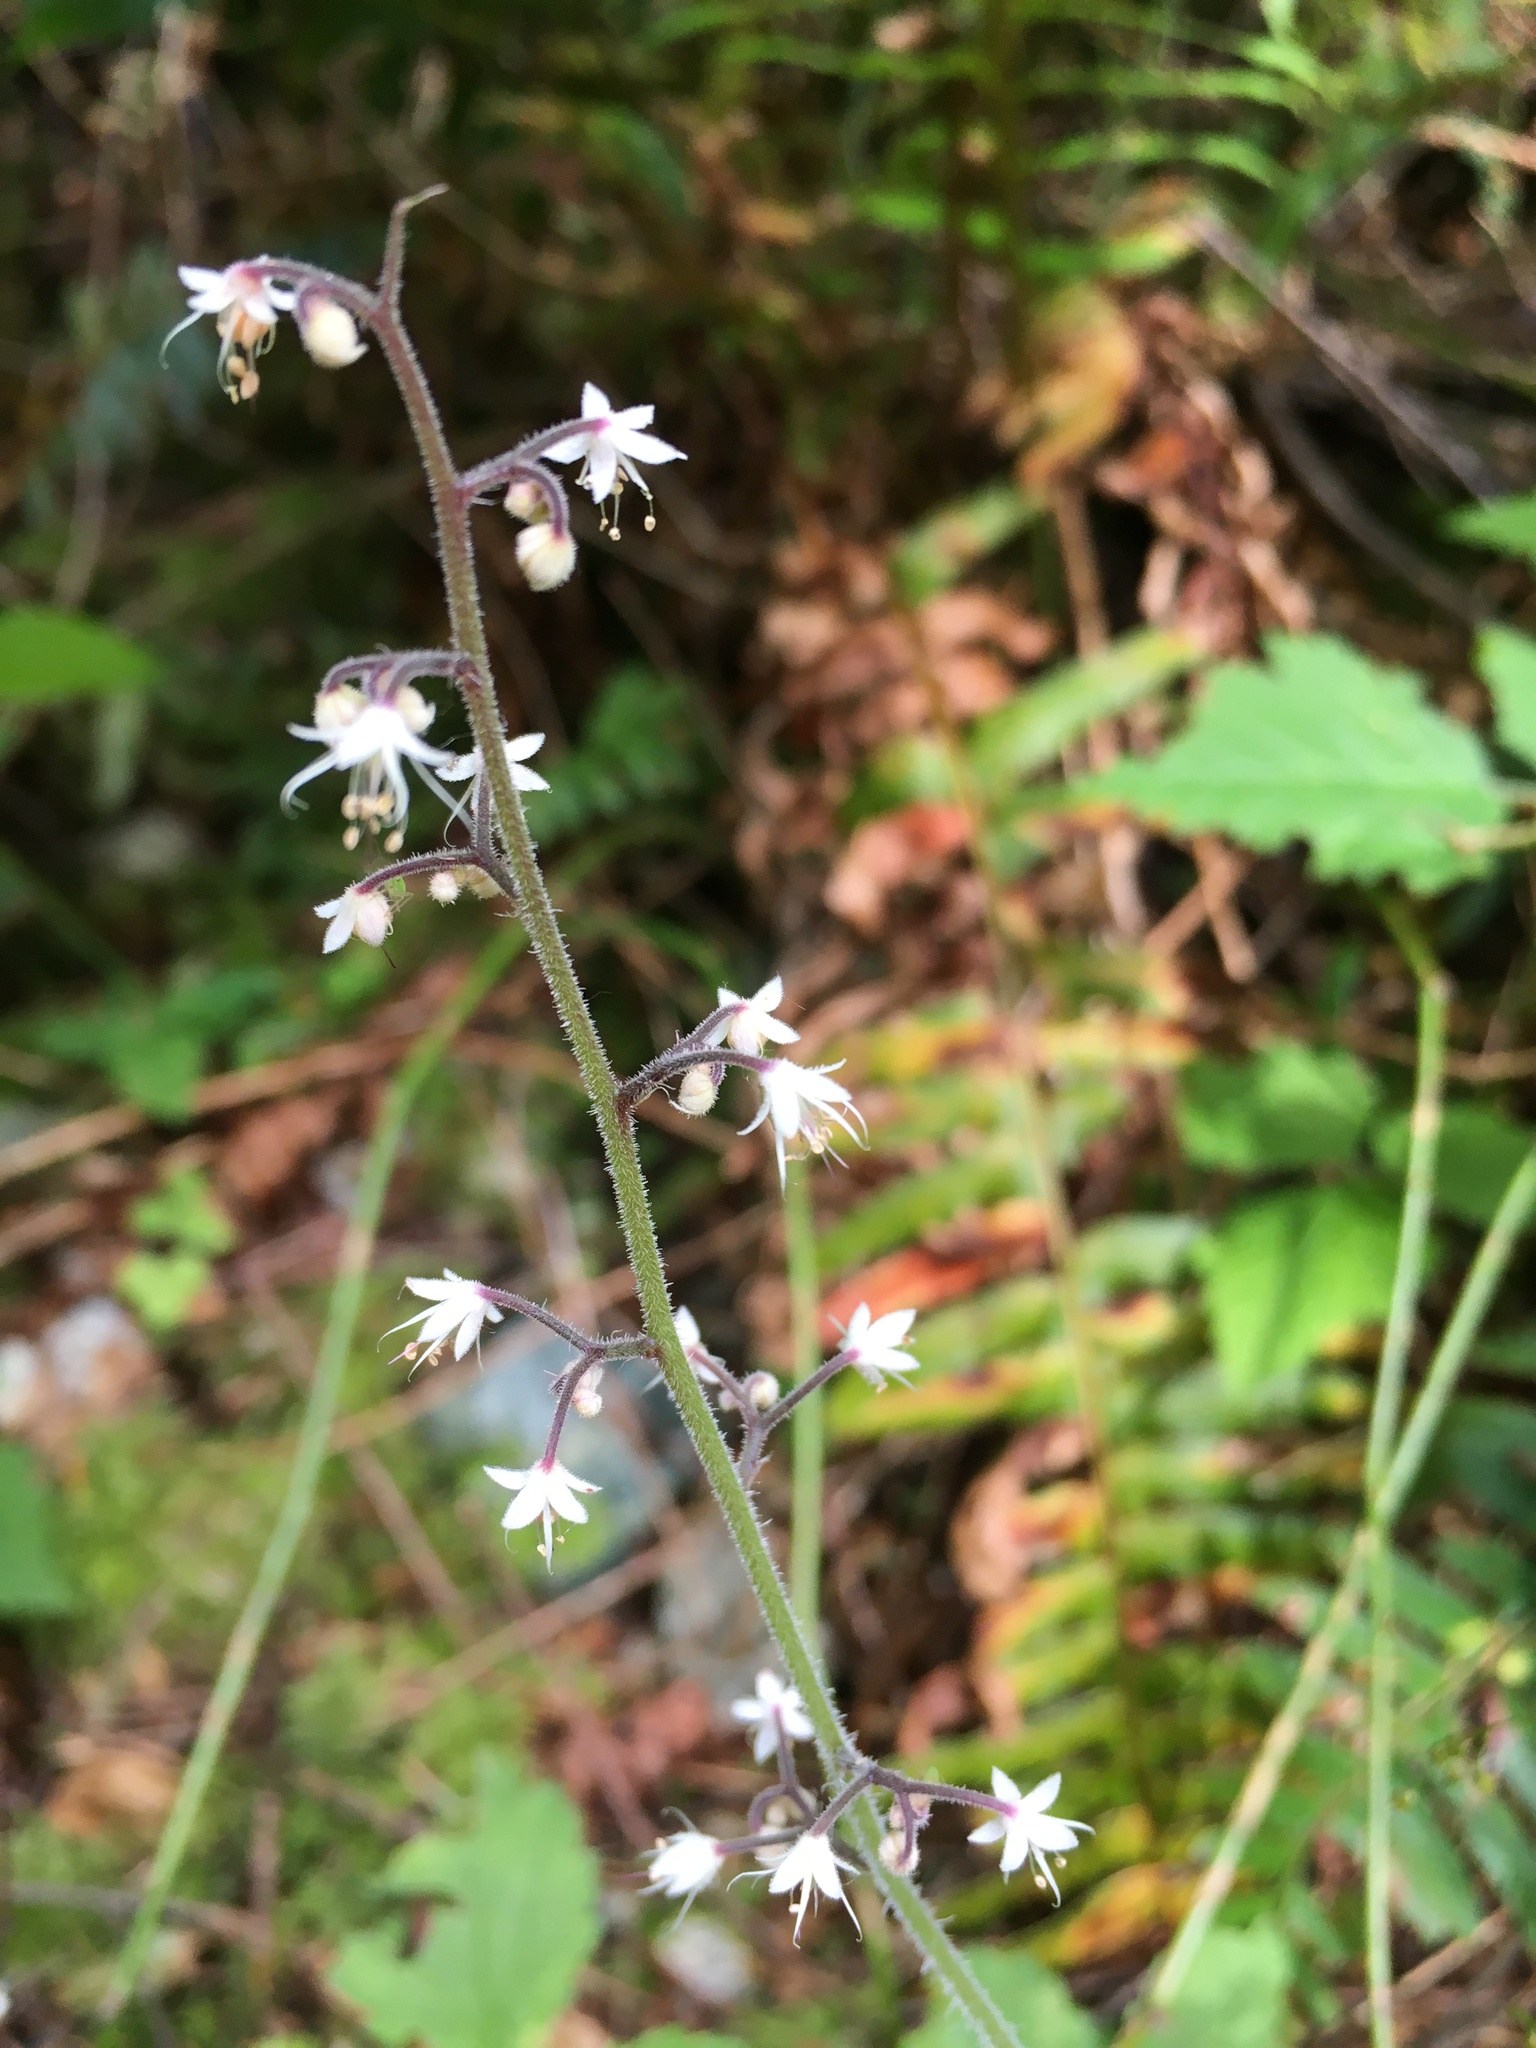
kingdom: Plantae
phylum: Tracheophyta
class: Magnoliopsida
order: Saxifragales
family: Saxifragaceae
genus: Tiarella
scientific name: Tiarella trifoliata
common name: Sugar-scoop
